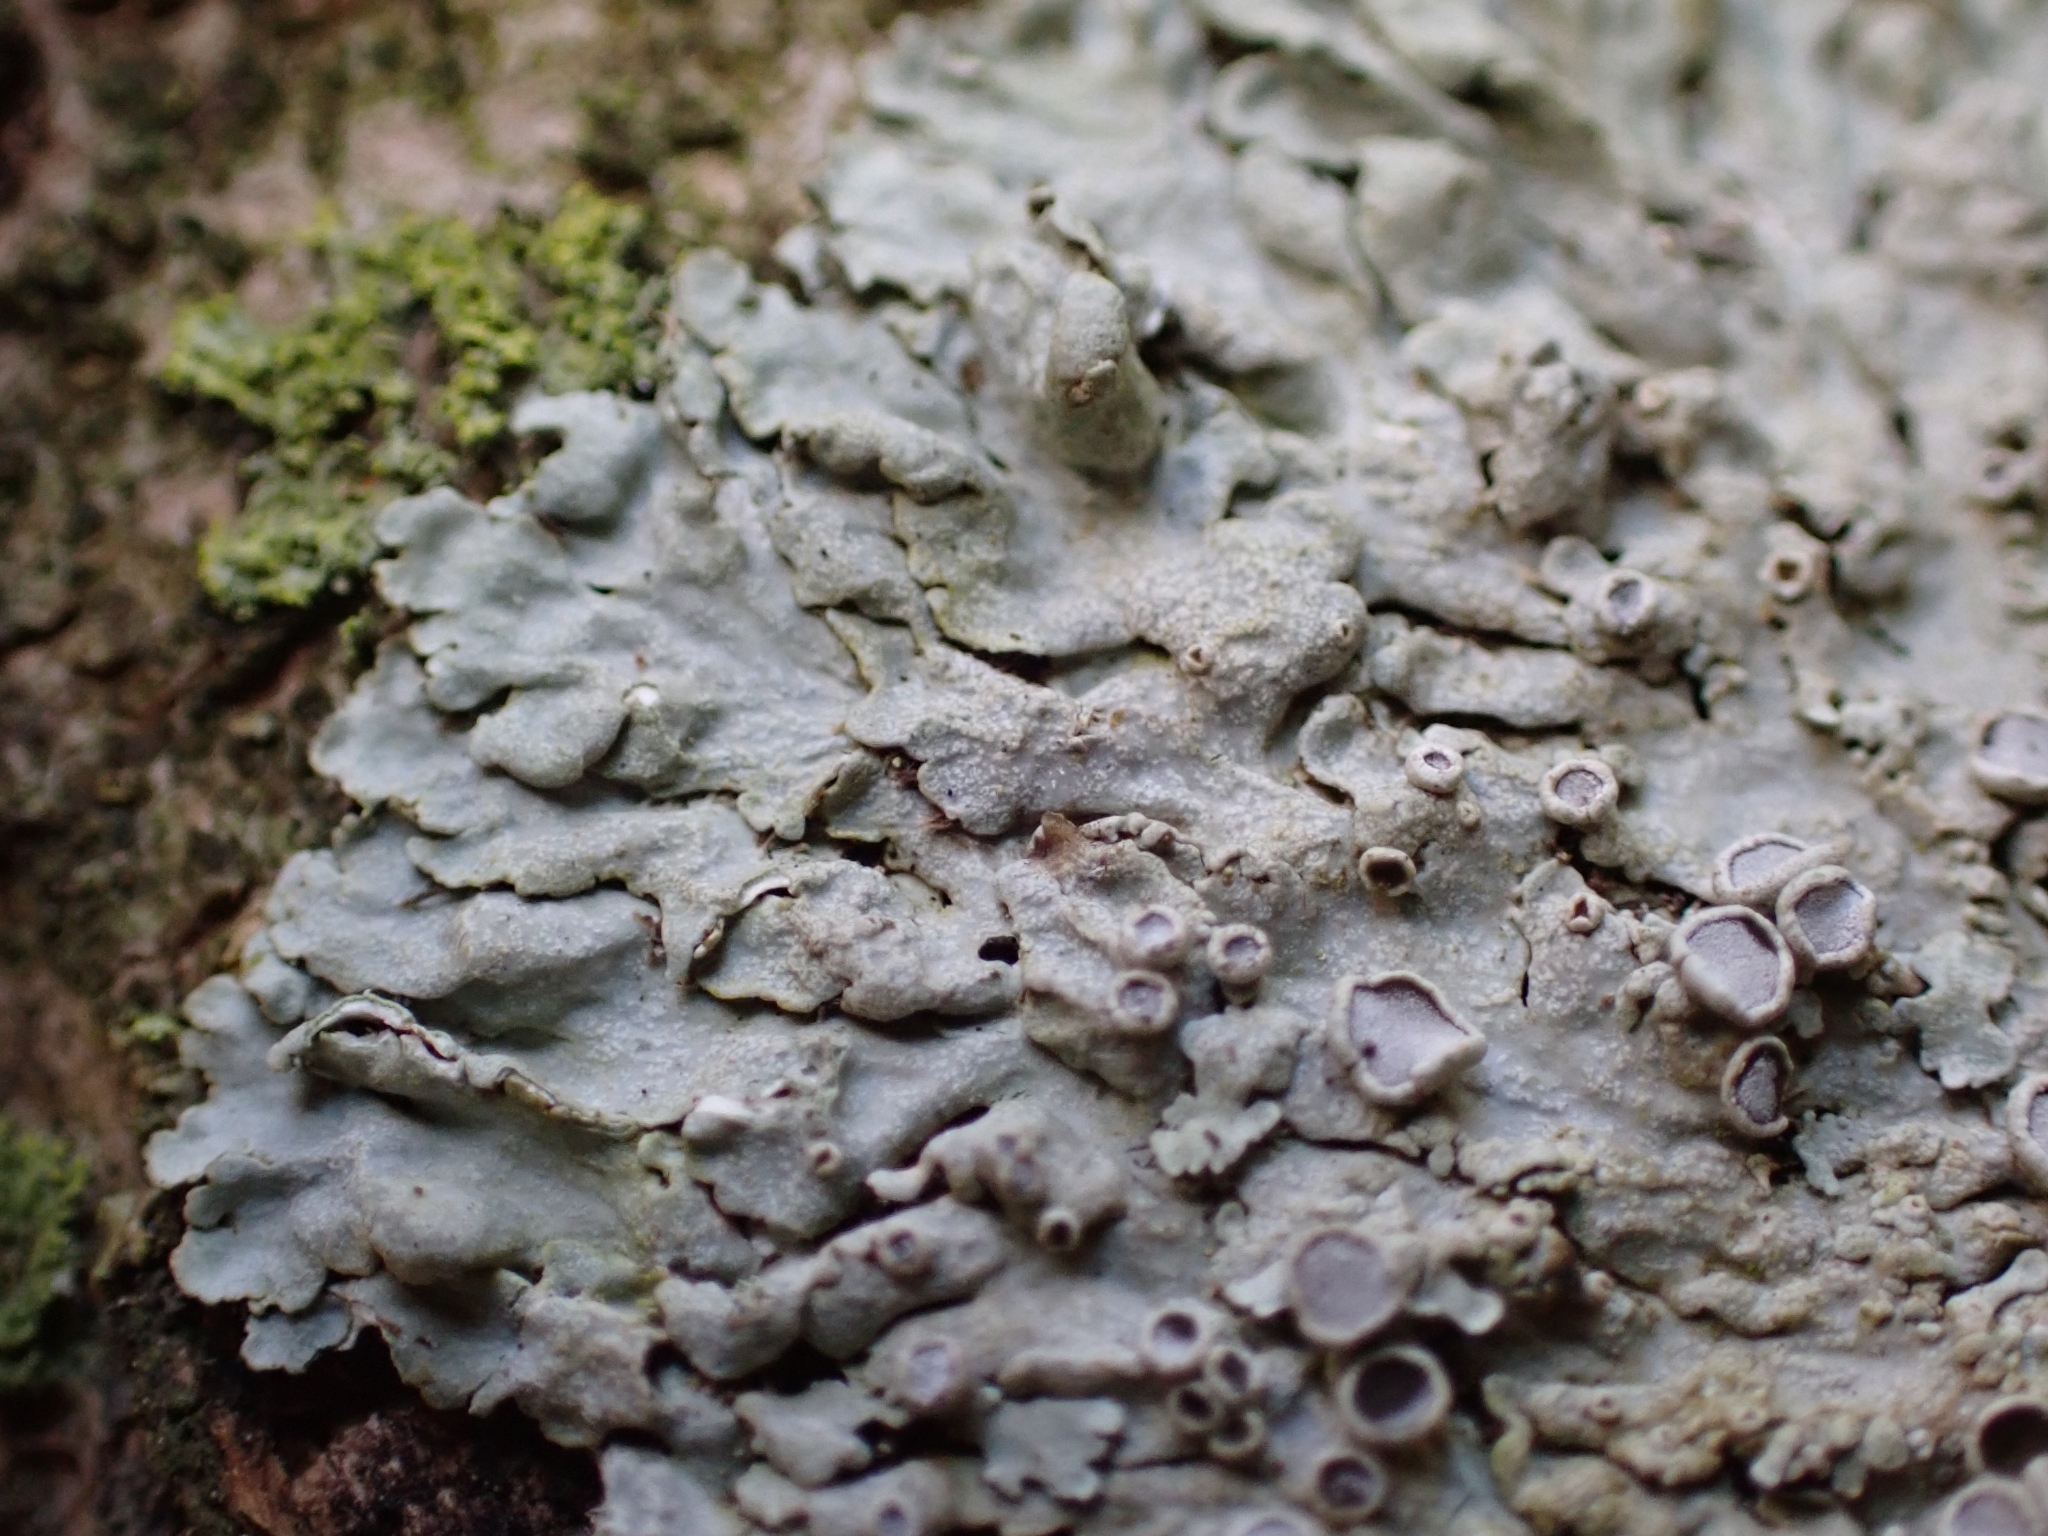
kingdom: Fungi
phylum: Ascomycota
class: Lecanoromycetes
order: Caliciales
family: Physciaceae
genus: Physcia
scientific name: Physcia aipolia
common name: Hoary rosette lichen
